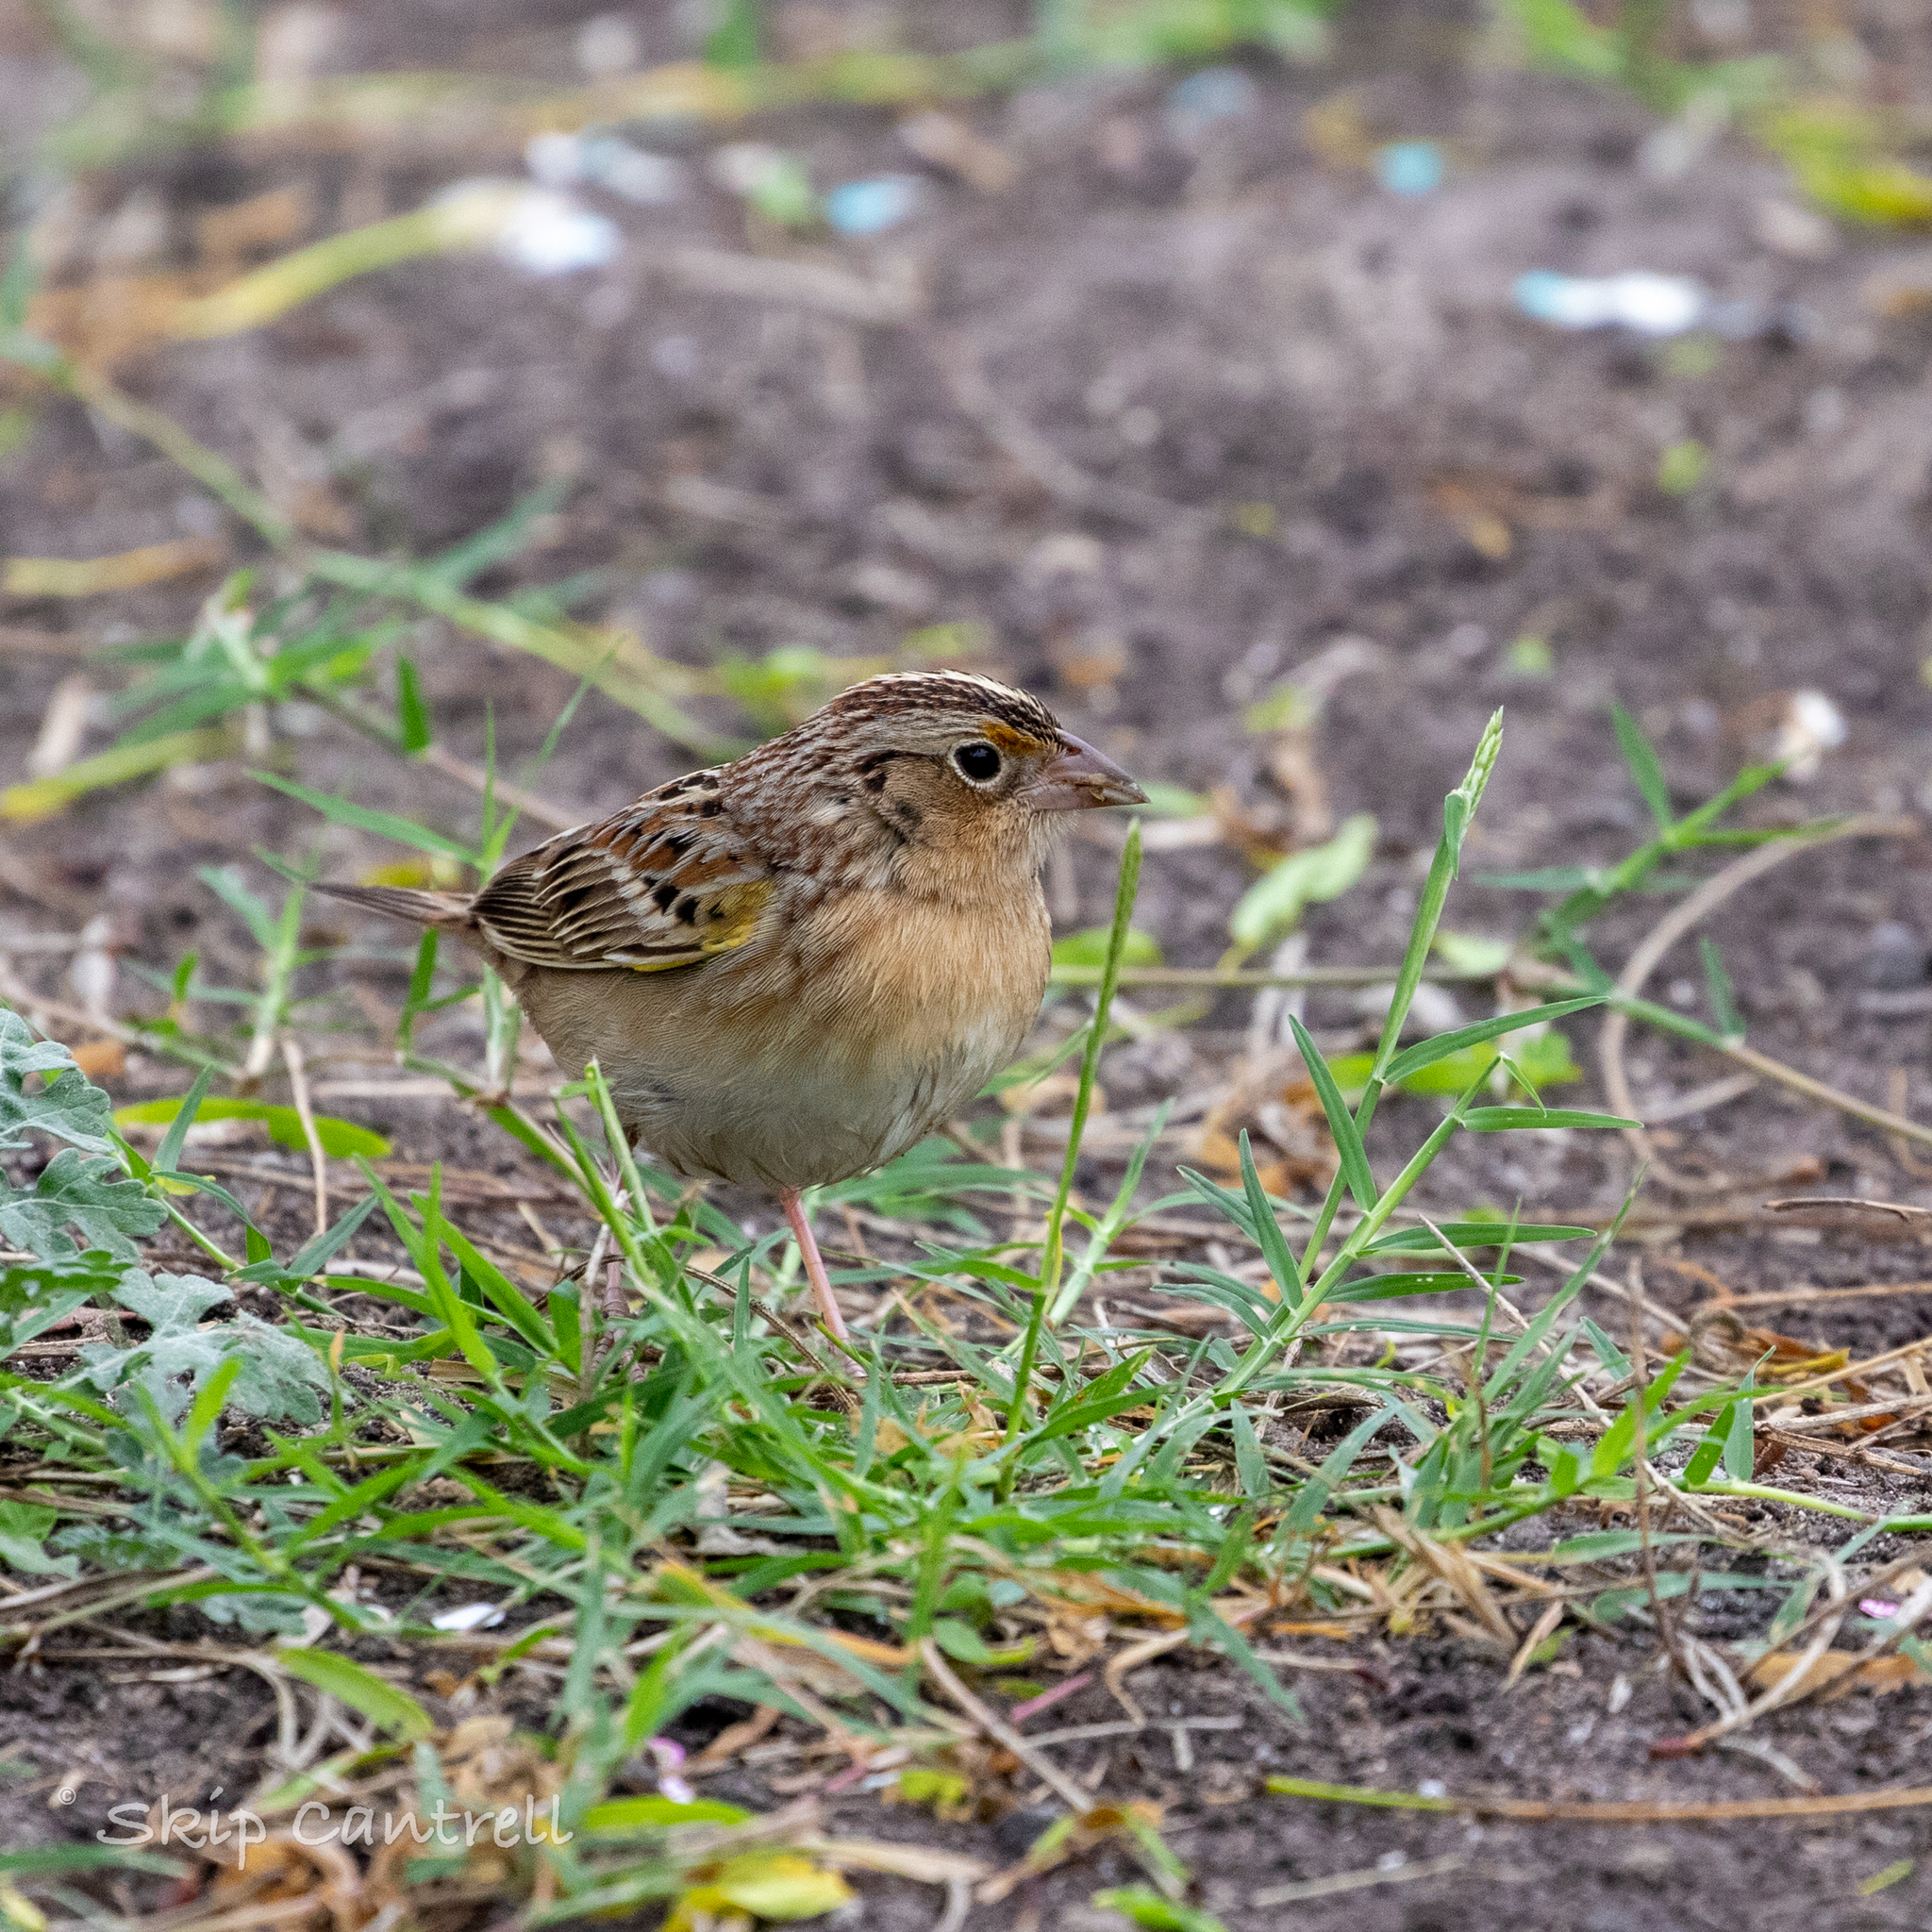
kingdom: Animalia
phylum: Chordata
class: Aves
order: Passeriformes
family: Passerellidae
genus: Ammodramus
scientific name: Ammodramus savannarum
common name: Grasshopper sparrow
